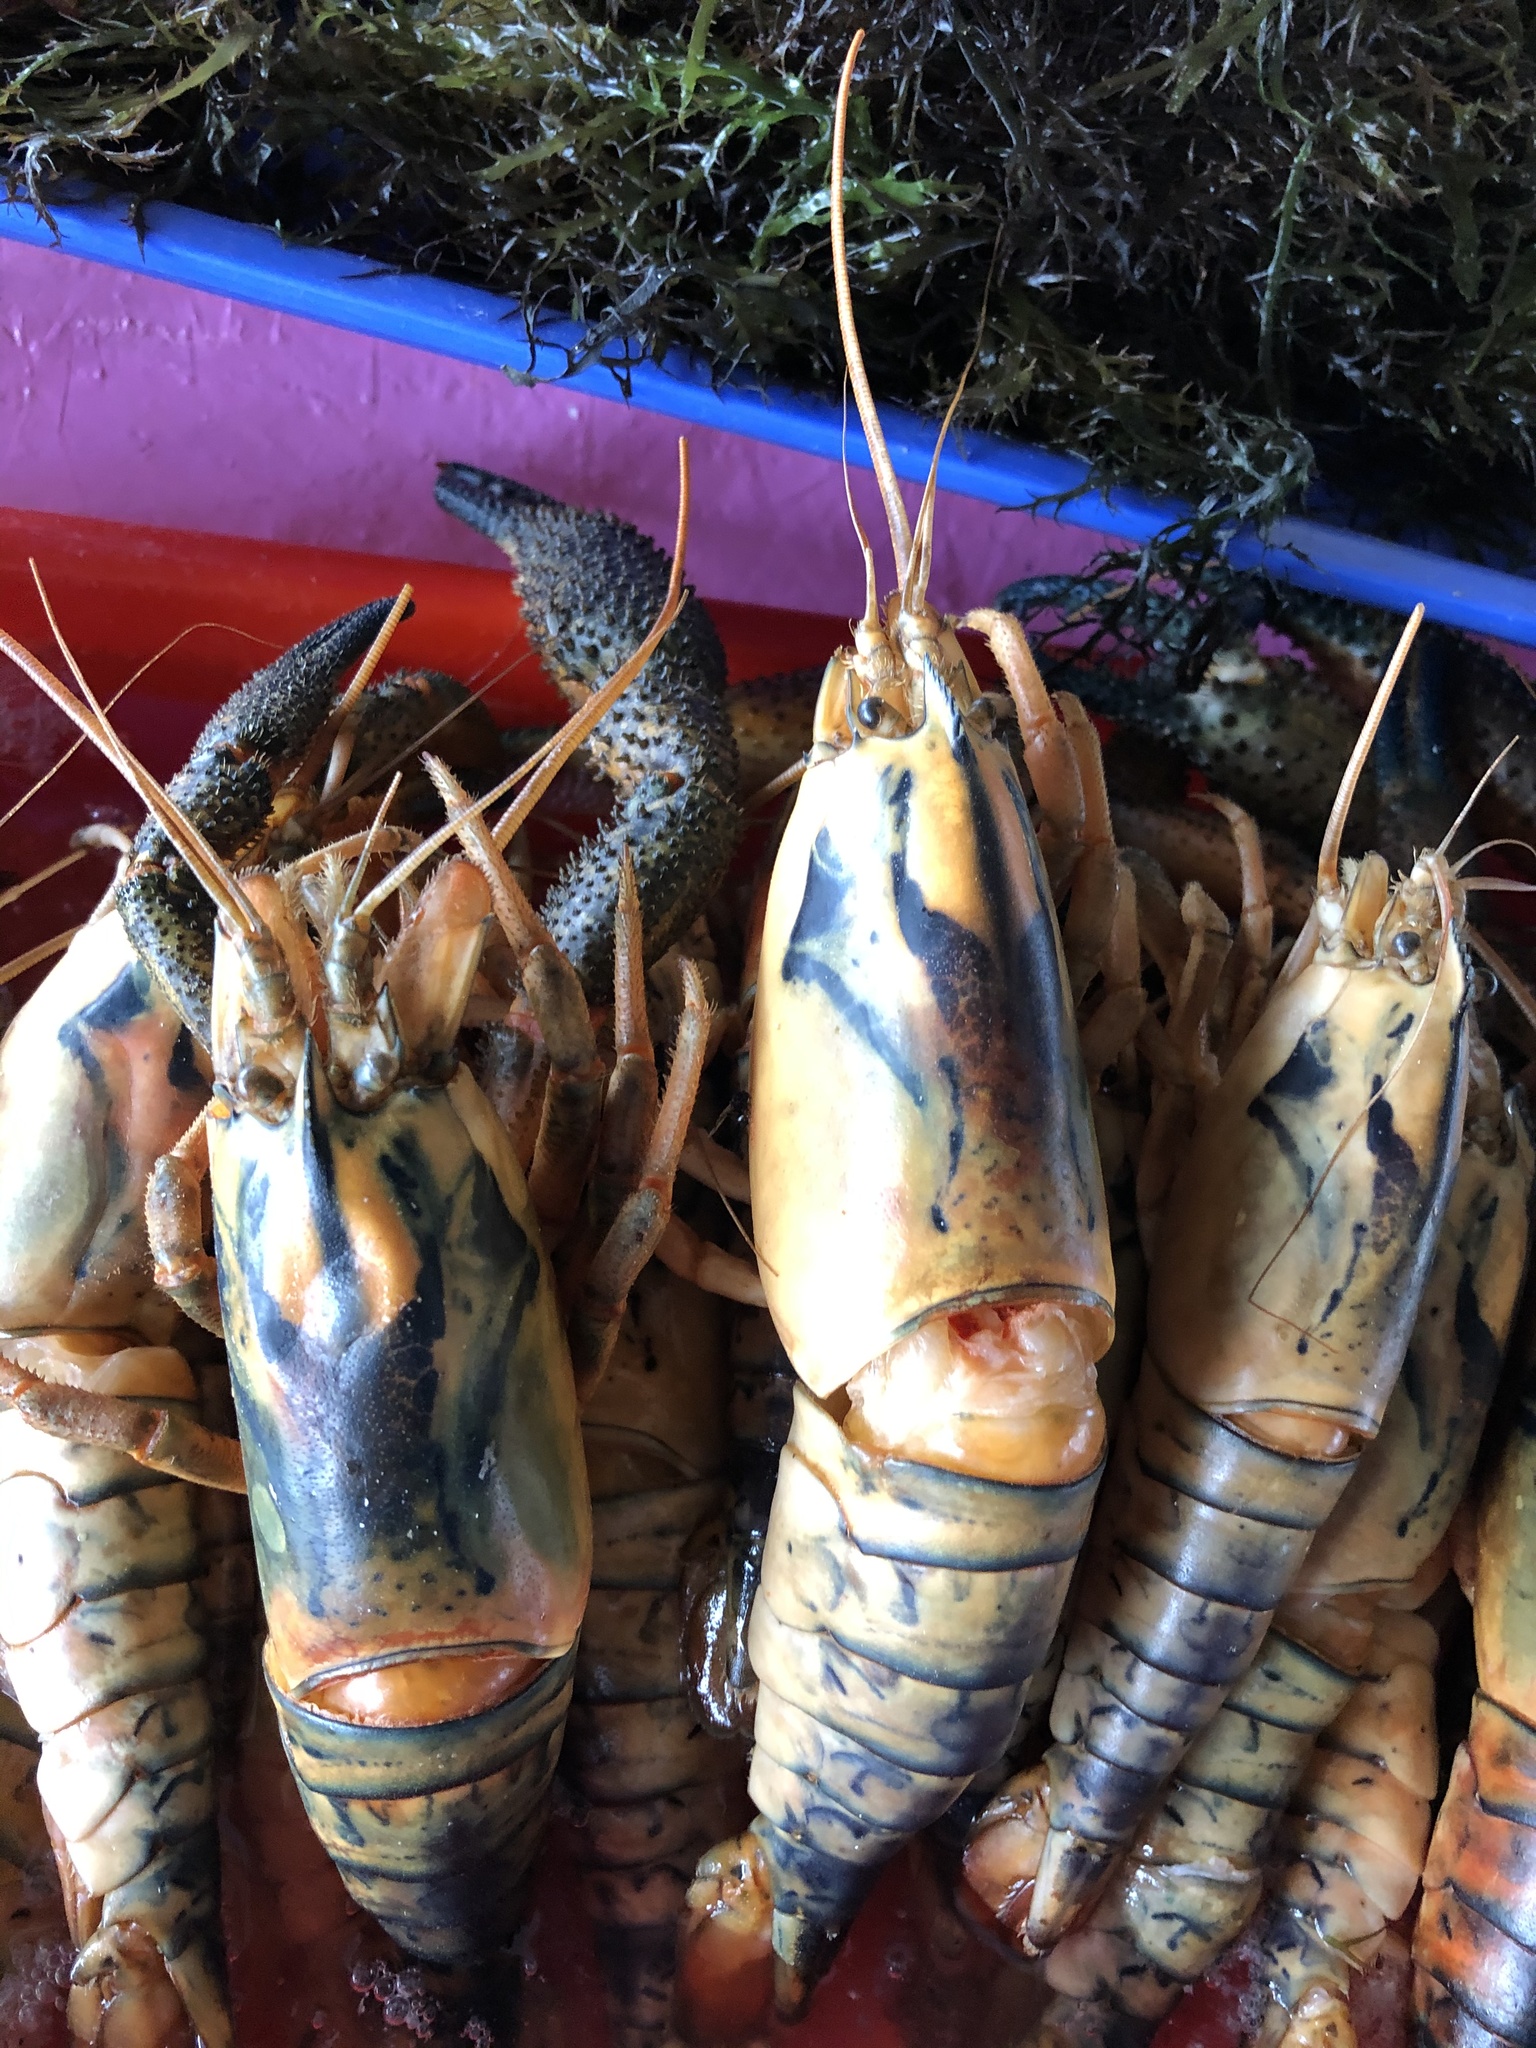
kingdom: Animalia
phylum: Arthropoda
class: Malacostraca
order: Decapoda
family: Palaemonidae
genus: Macrobrachium
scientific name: Macrobrachium caementarius
